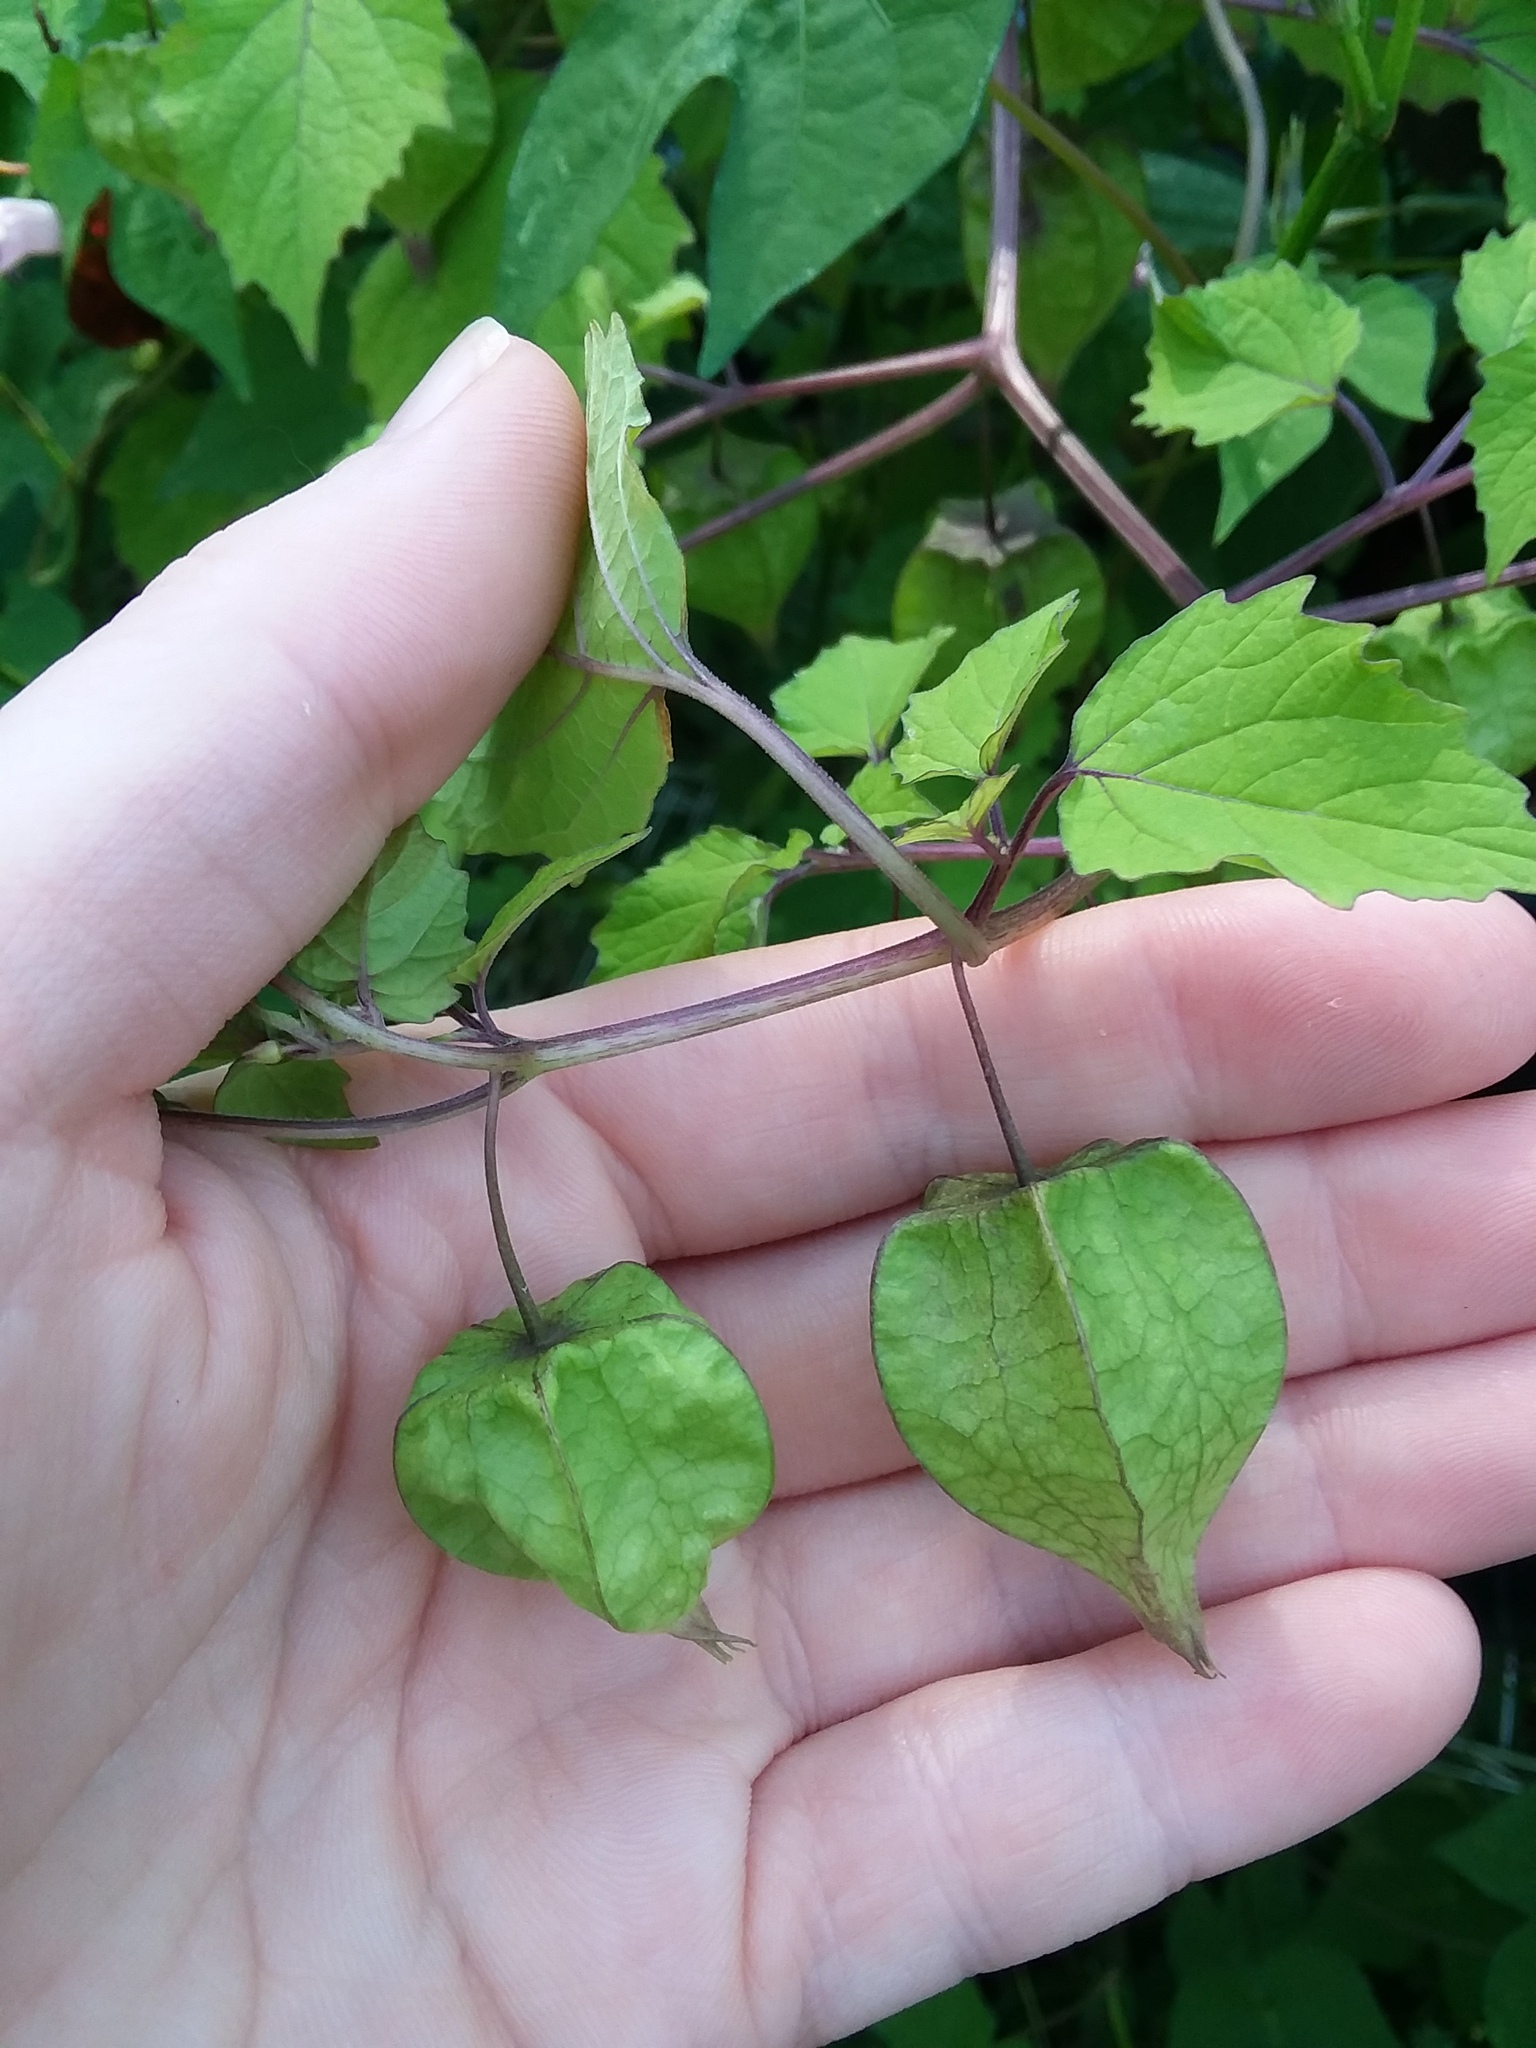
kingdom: Plantae
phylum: Tracheophyta
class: Magnoliopsida
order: Solanales
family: Solanaceae
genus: Physalis
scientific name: Physalis cordata
